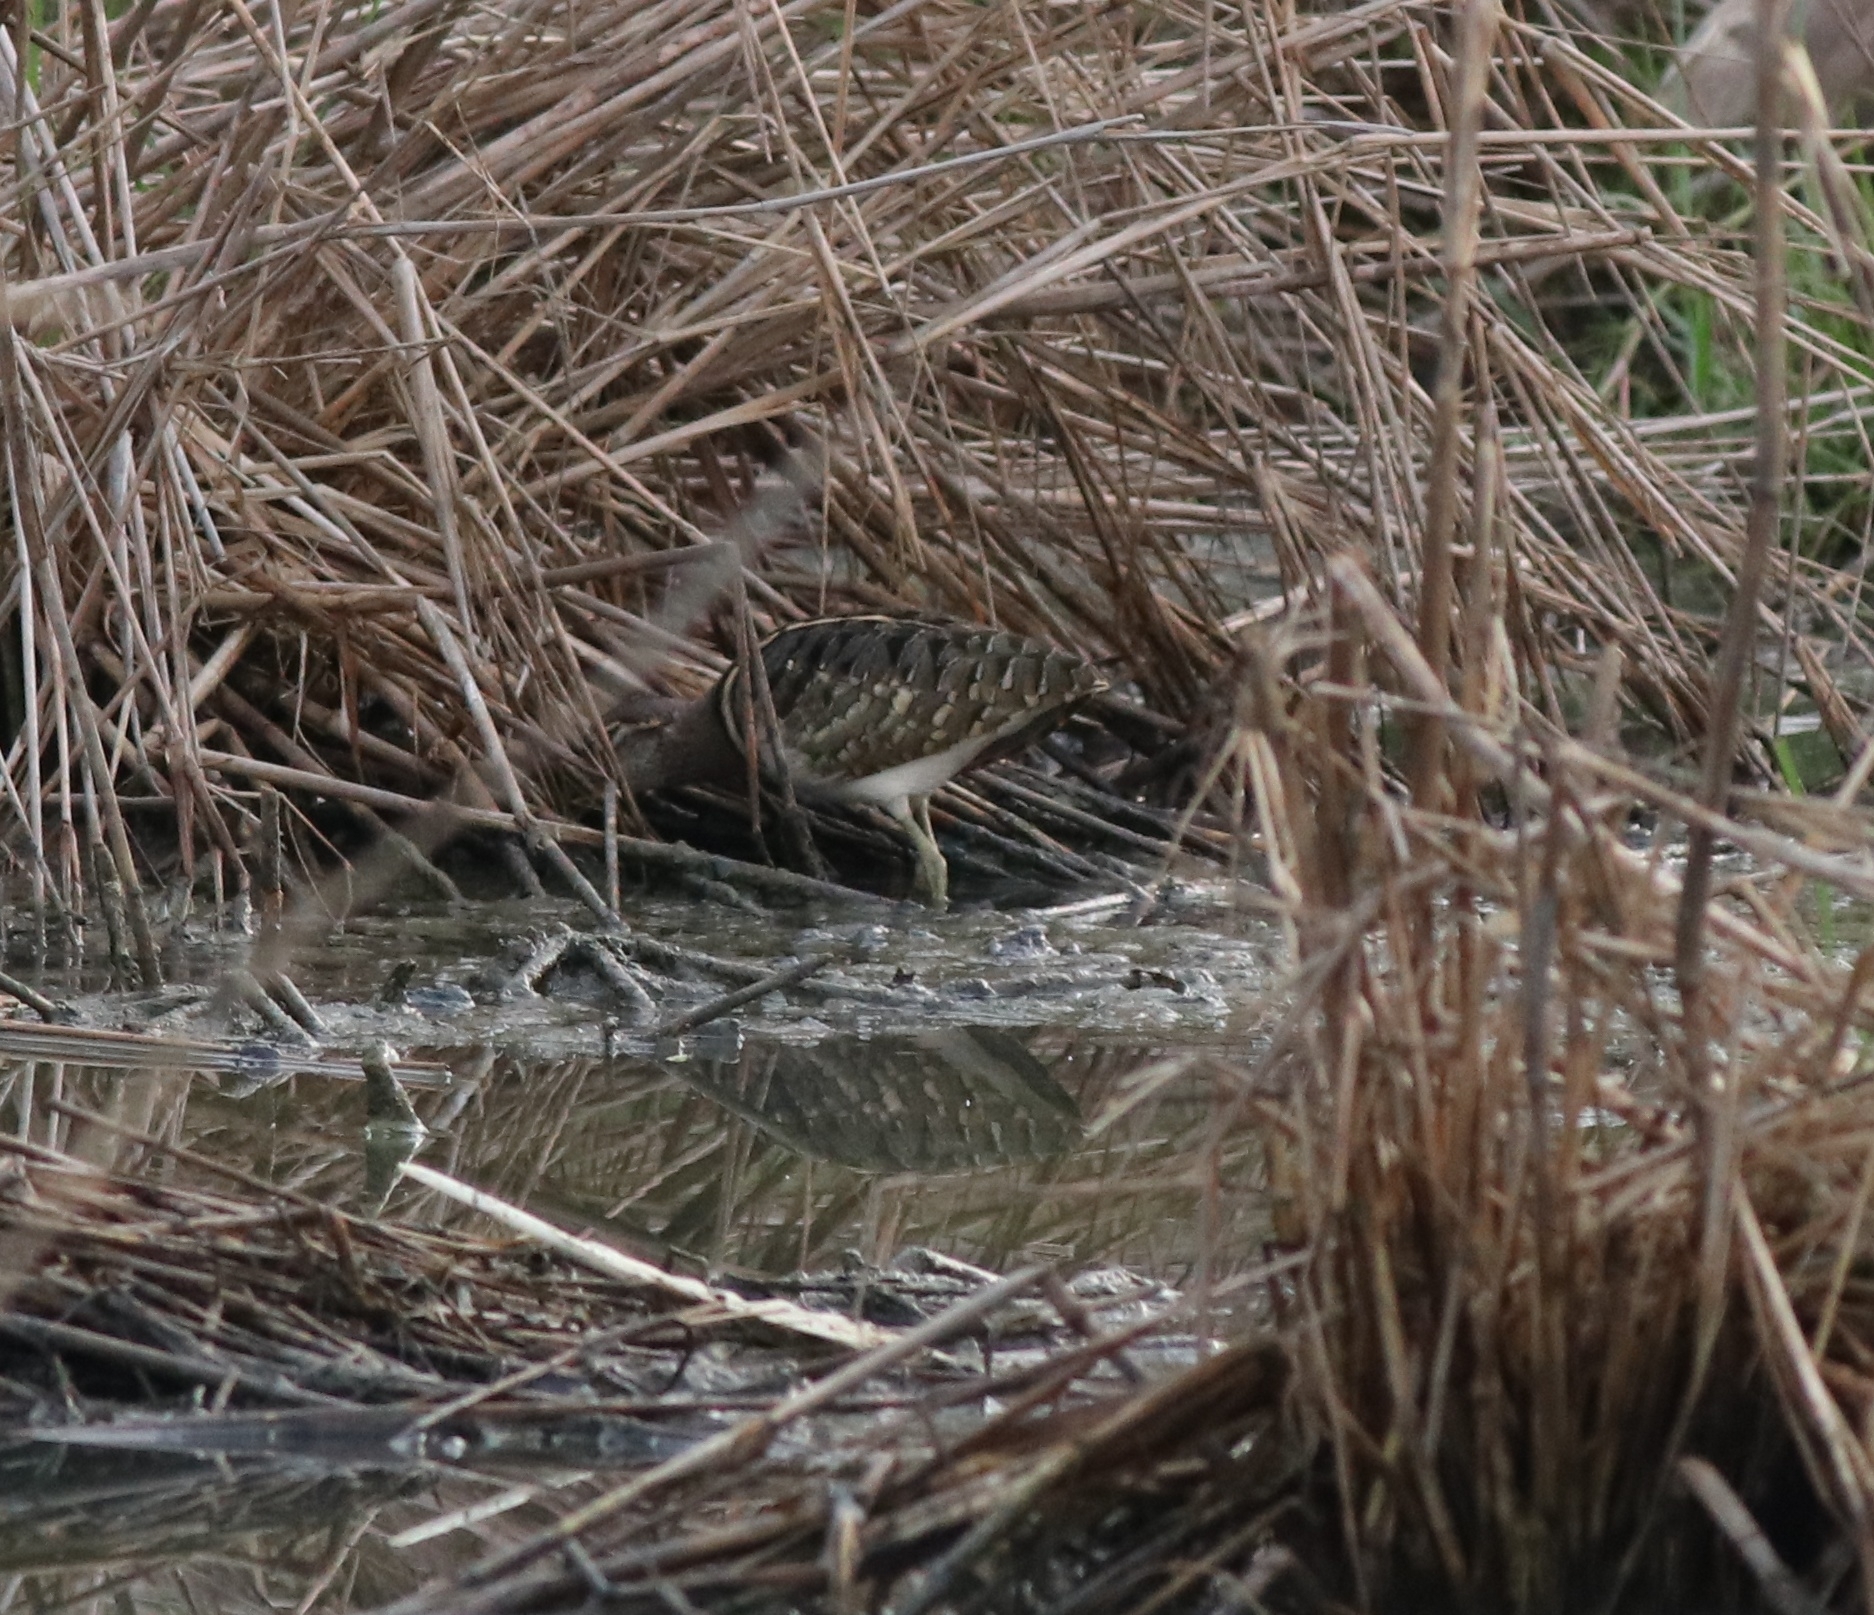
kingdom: Animalia
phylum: Chordata
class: Aves
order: Charadriiformes
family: Rostratulidae
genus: Rostratula
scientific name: Rostratula benghalensis
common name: Greater painted-snipe
